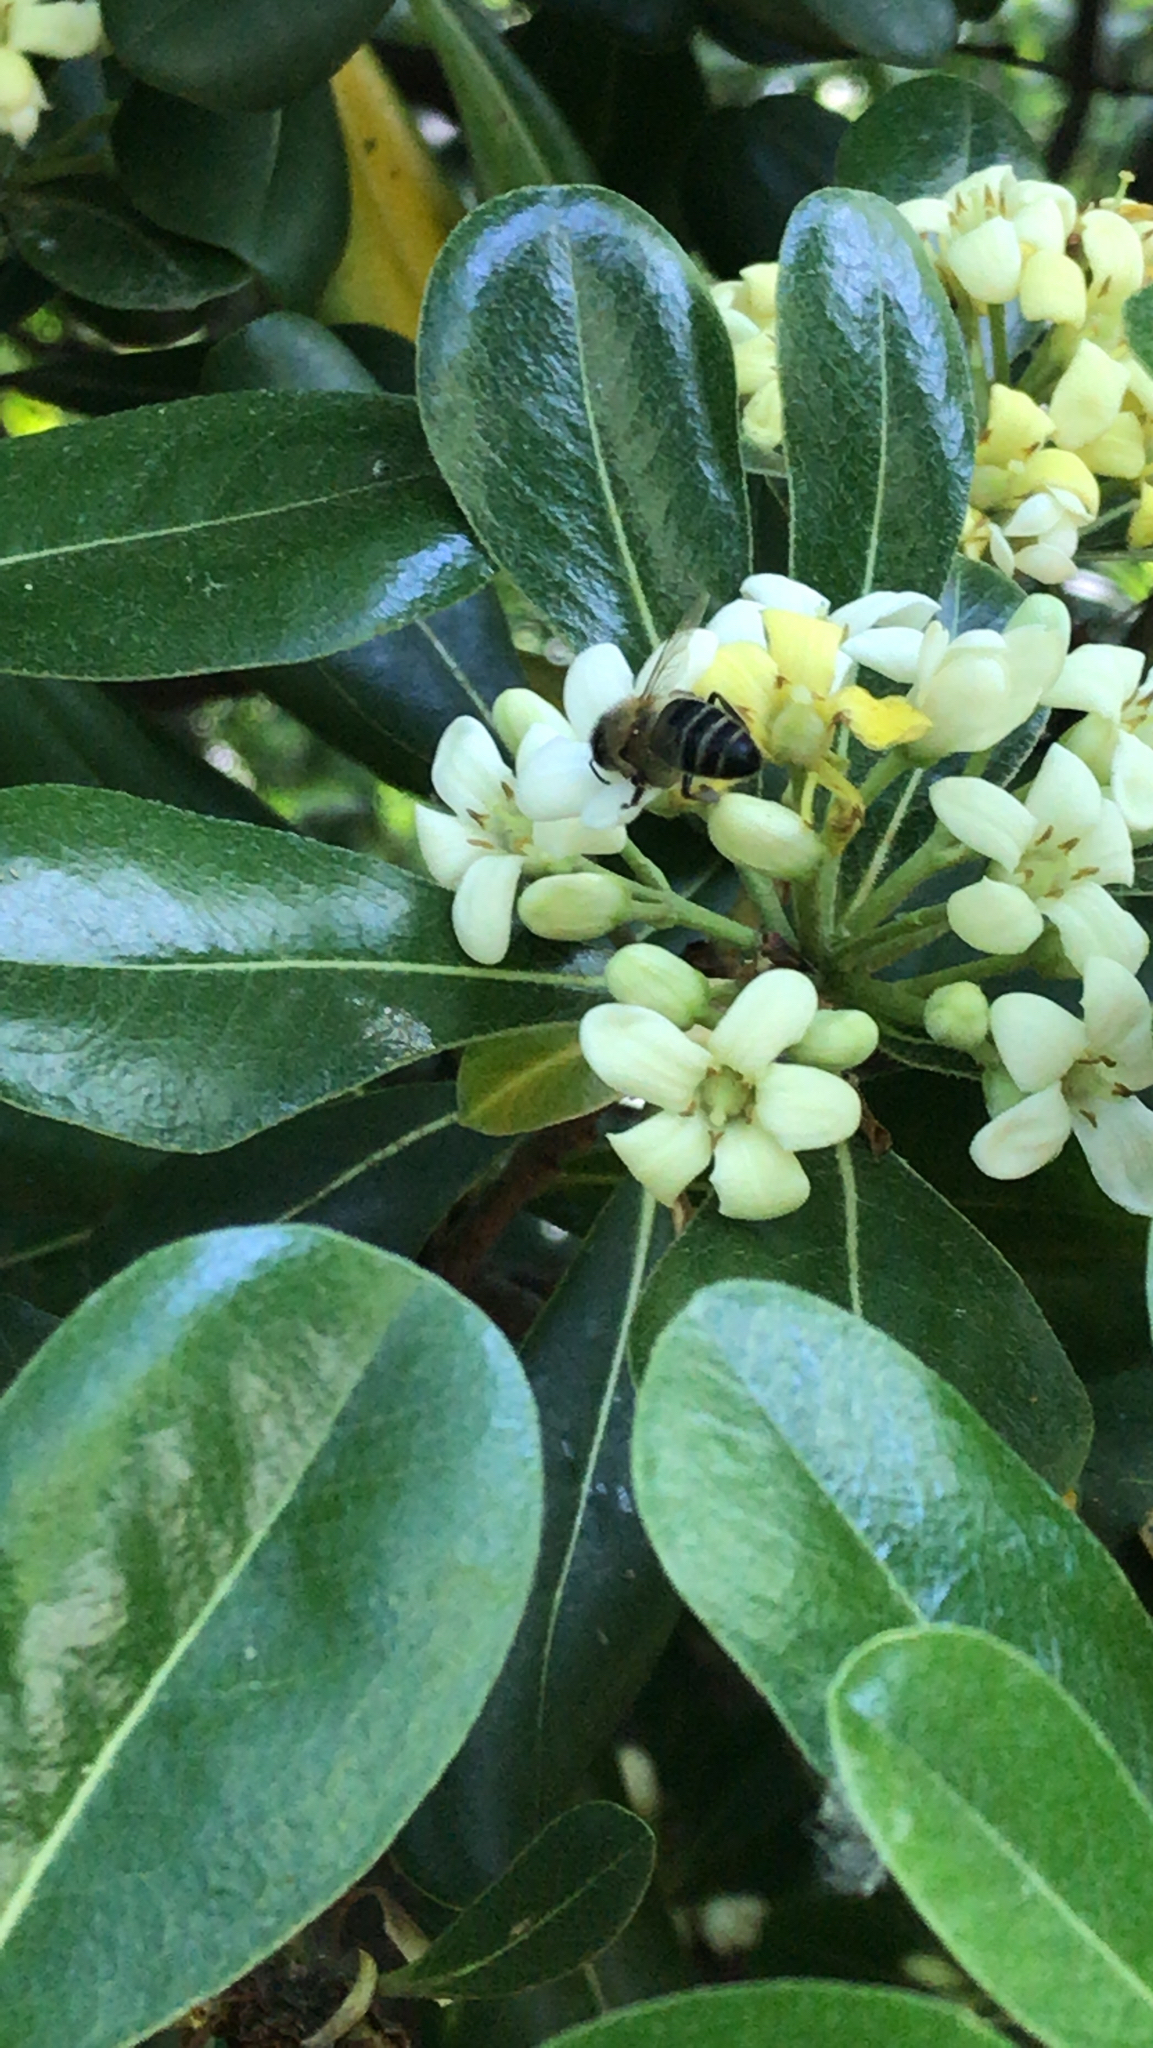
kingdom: Animalia
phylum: Arthropoda
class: Insecta
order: Hymenoptera
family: Apidae
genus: Apis
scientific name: Apis mellifera
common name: Honey bee
